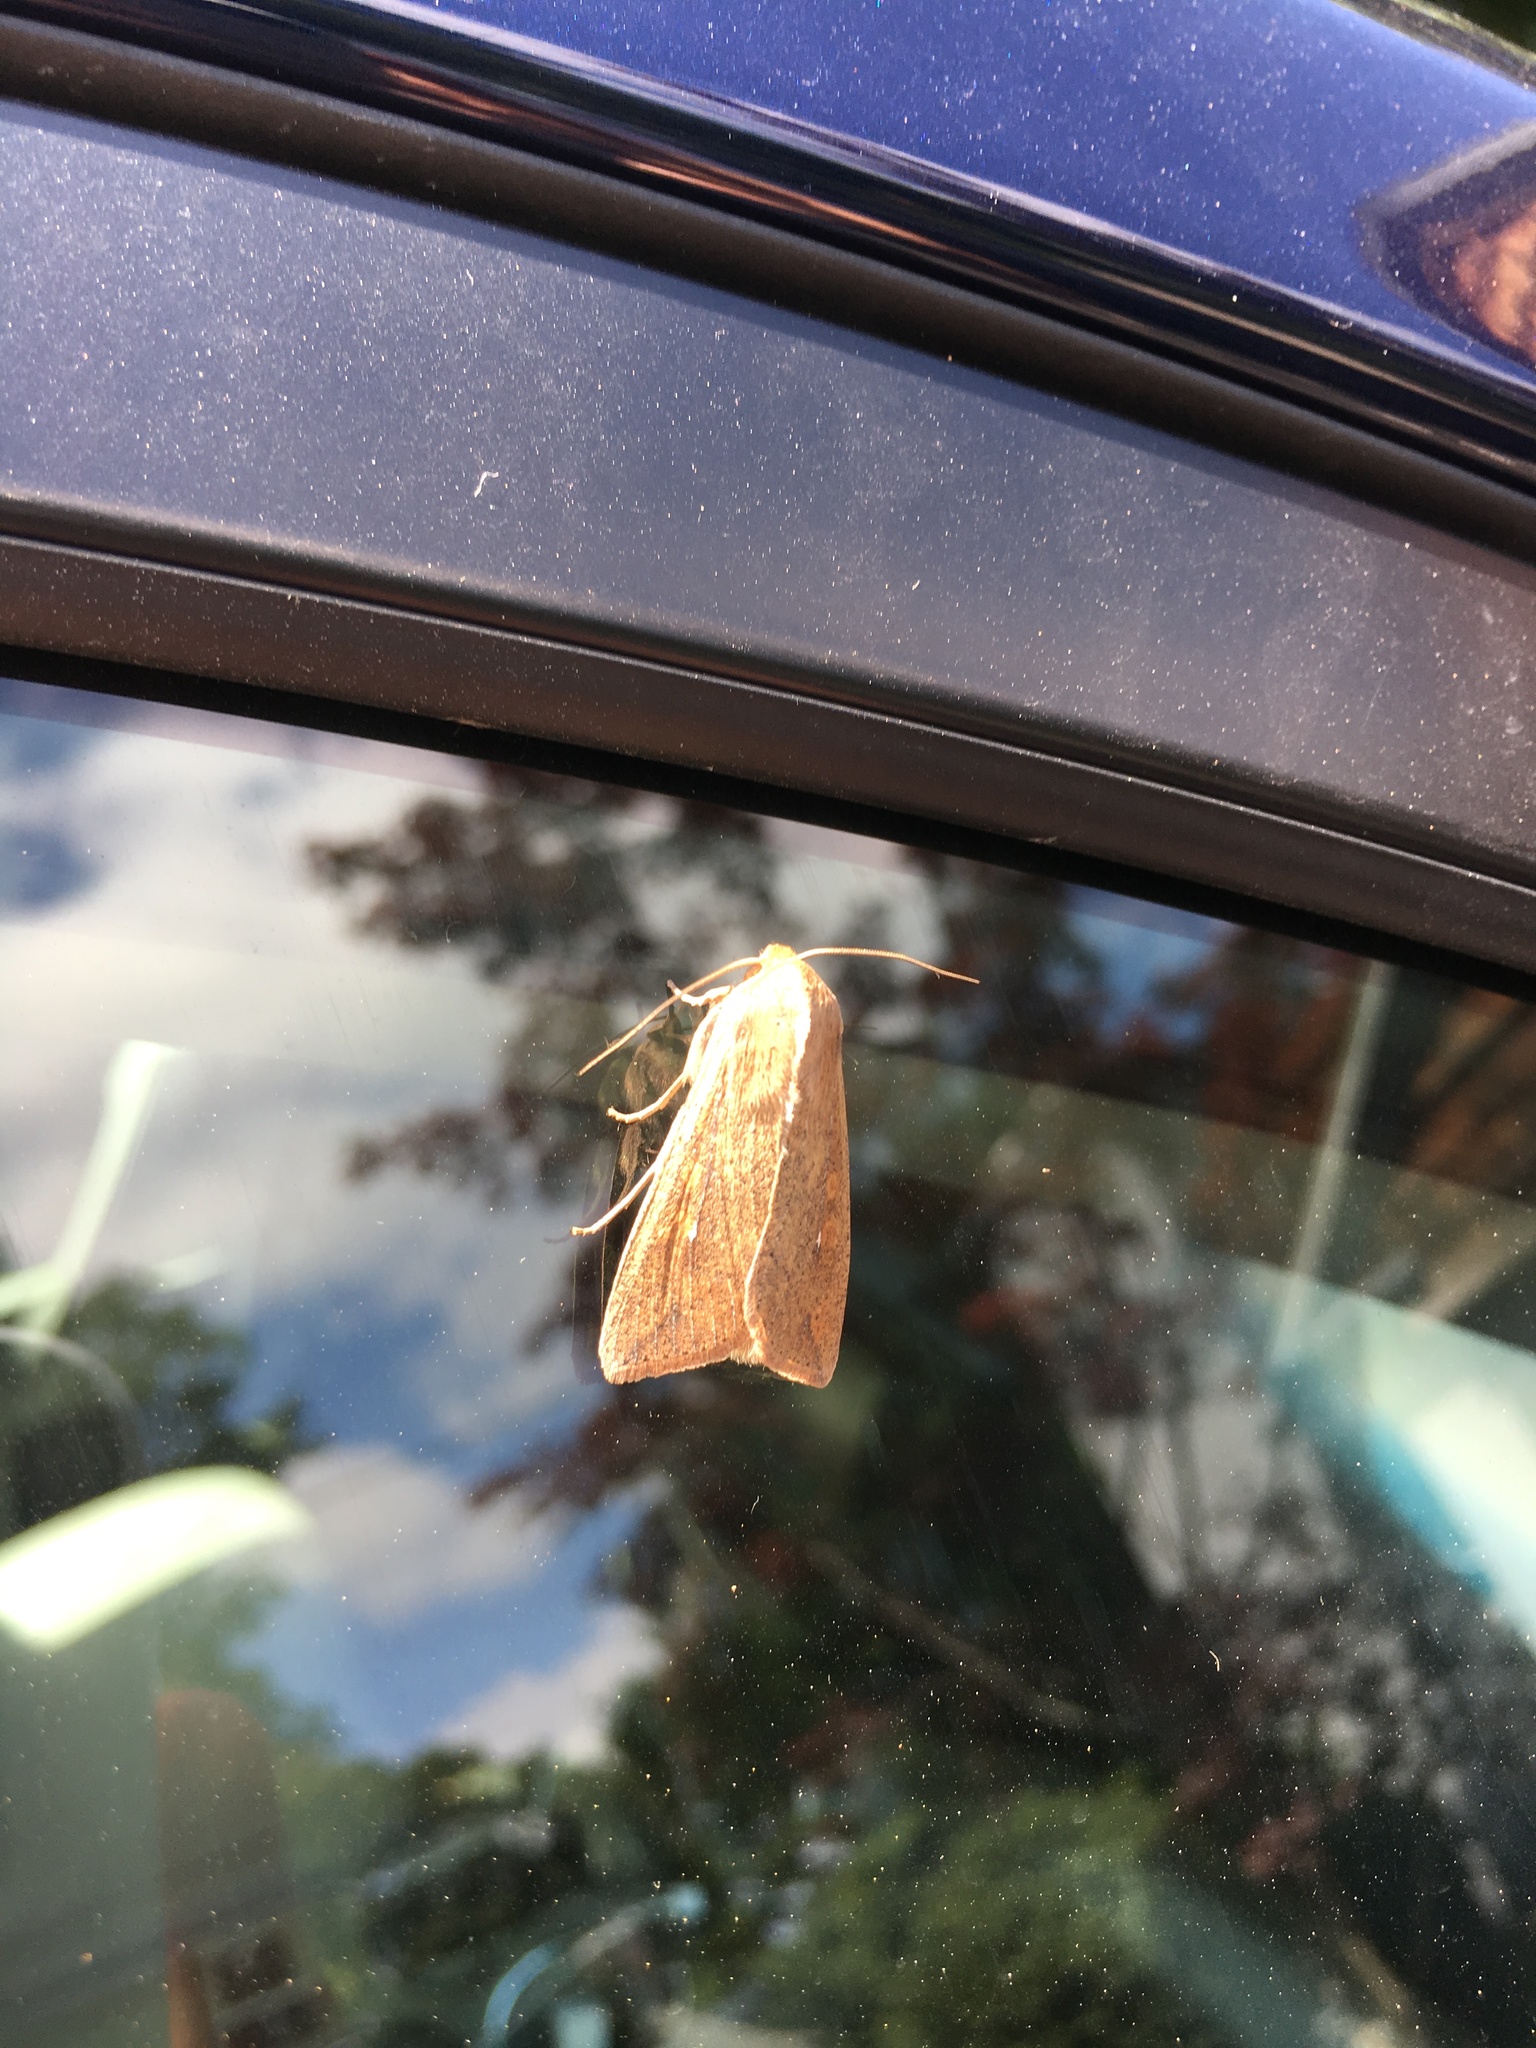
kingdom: Animalia
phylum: Arthropoda
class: Insecta
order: Lepidoptera
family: Noctuidae
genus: Mythimna
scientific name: Mythimna unipuncta
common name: White-speck
